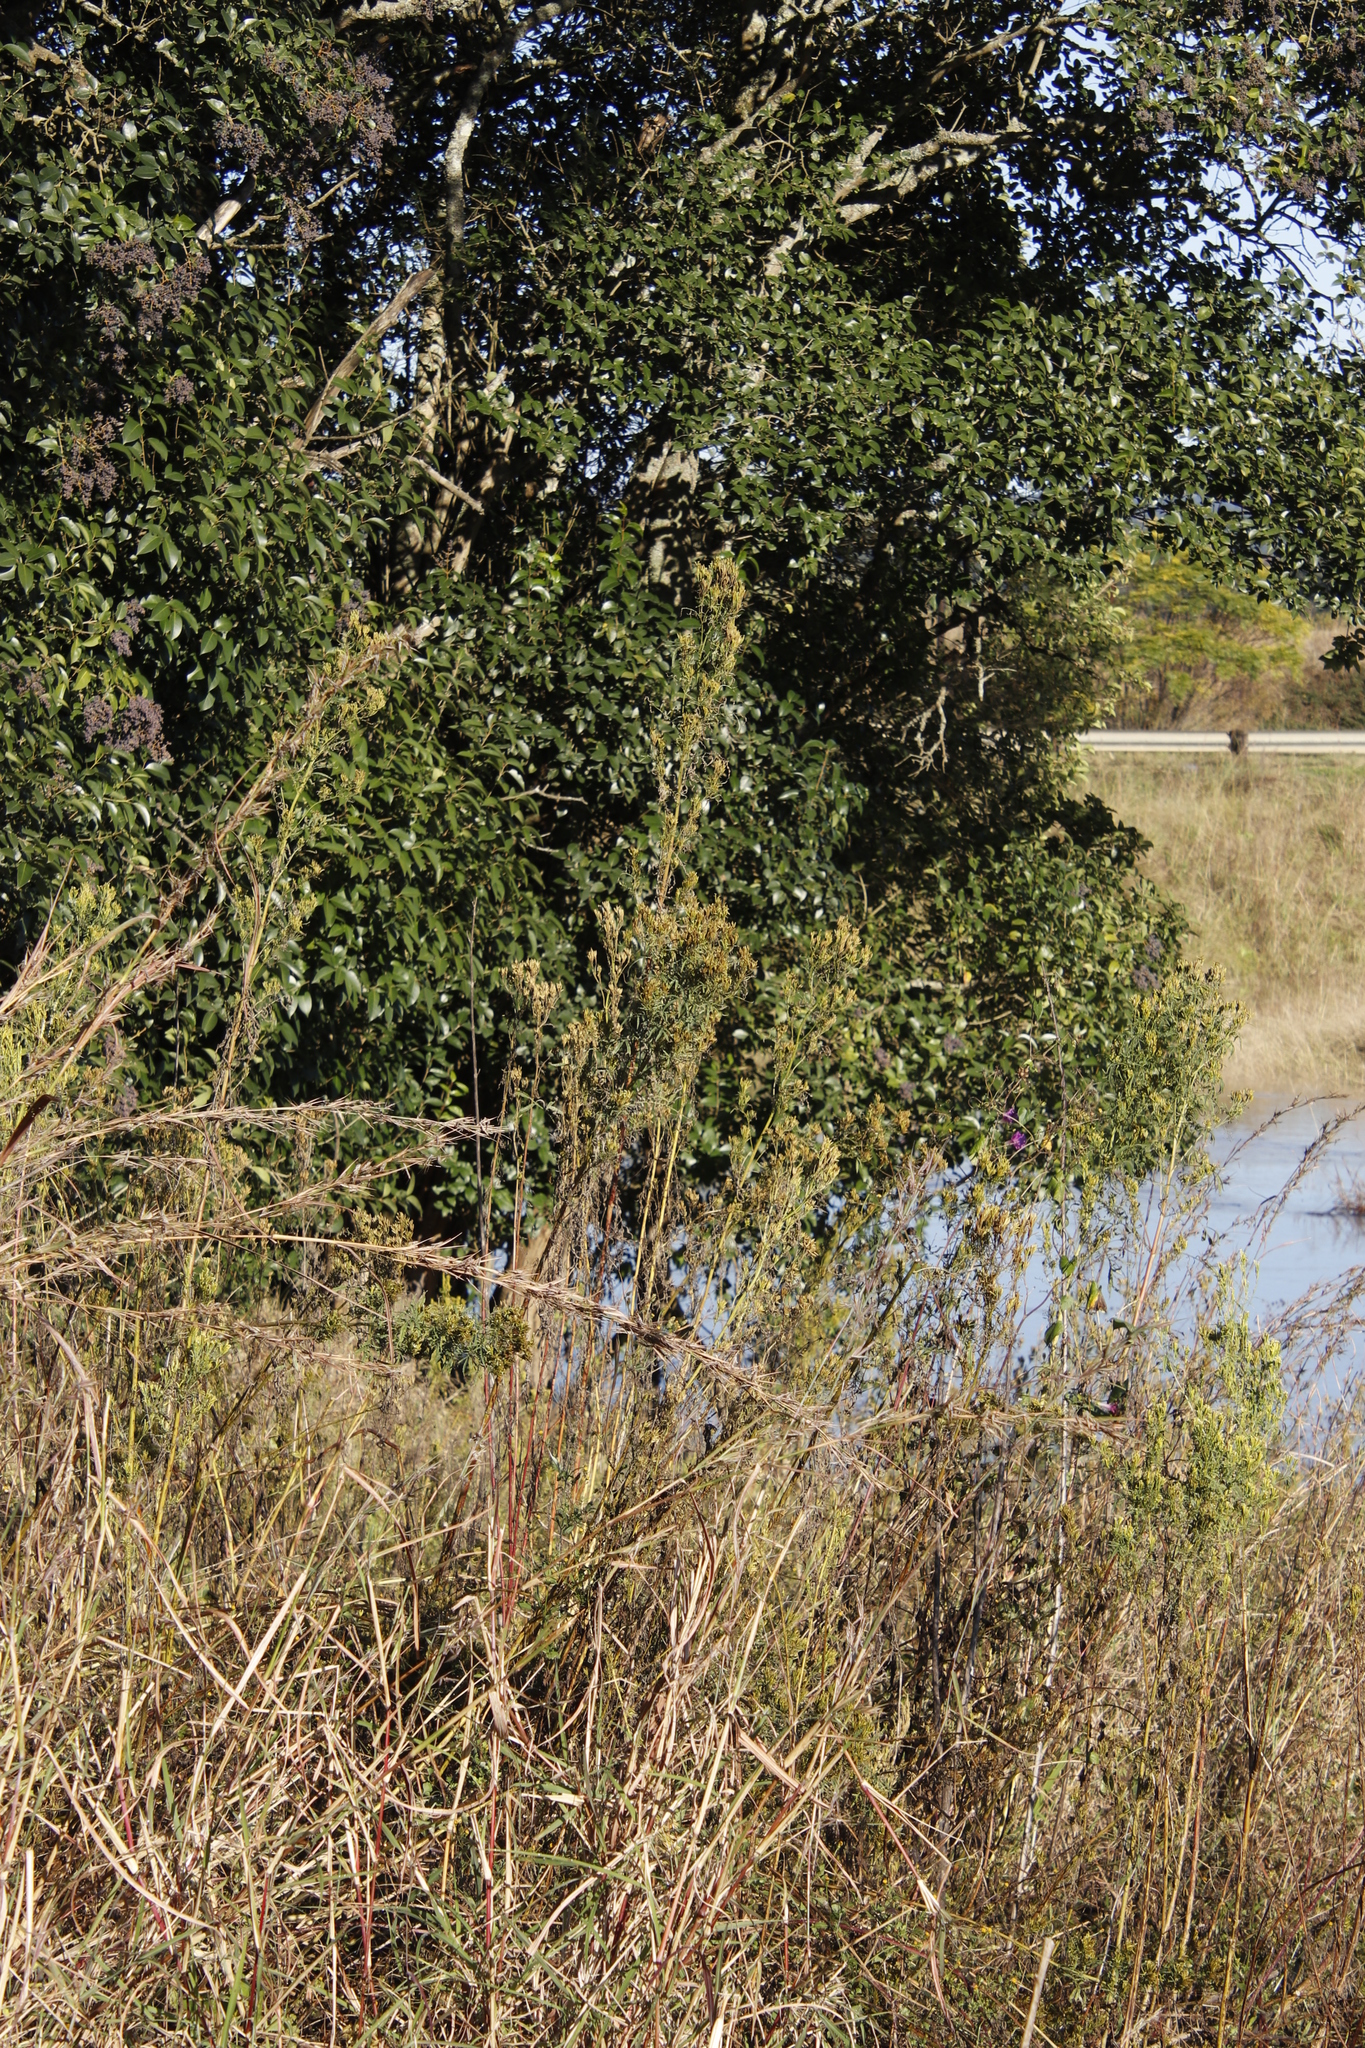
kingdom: Plantae
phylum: Tracheophyta
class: Magnoliopsida
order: Asterales
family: Asteraceae
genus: Tagetes
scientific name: Tagetes minuta
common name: Muster john henry
